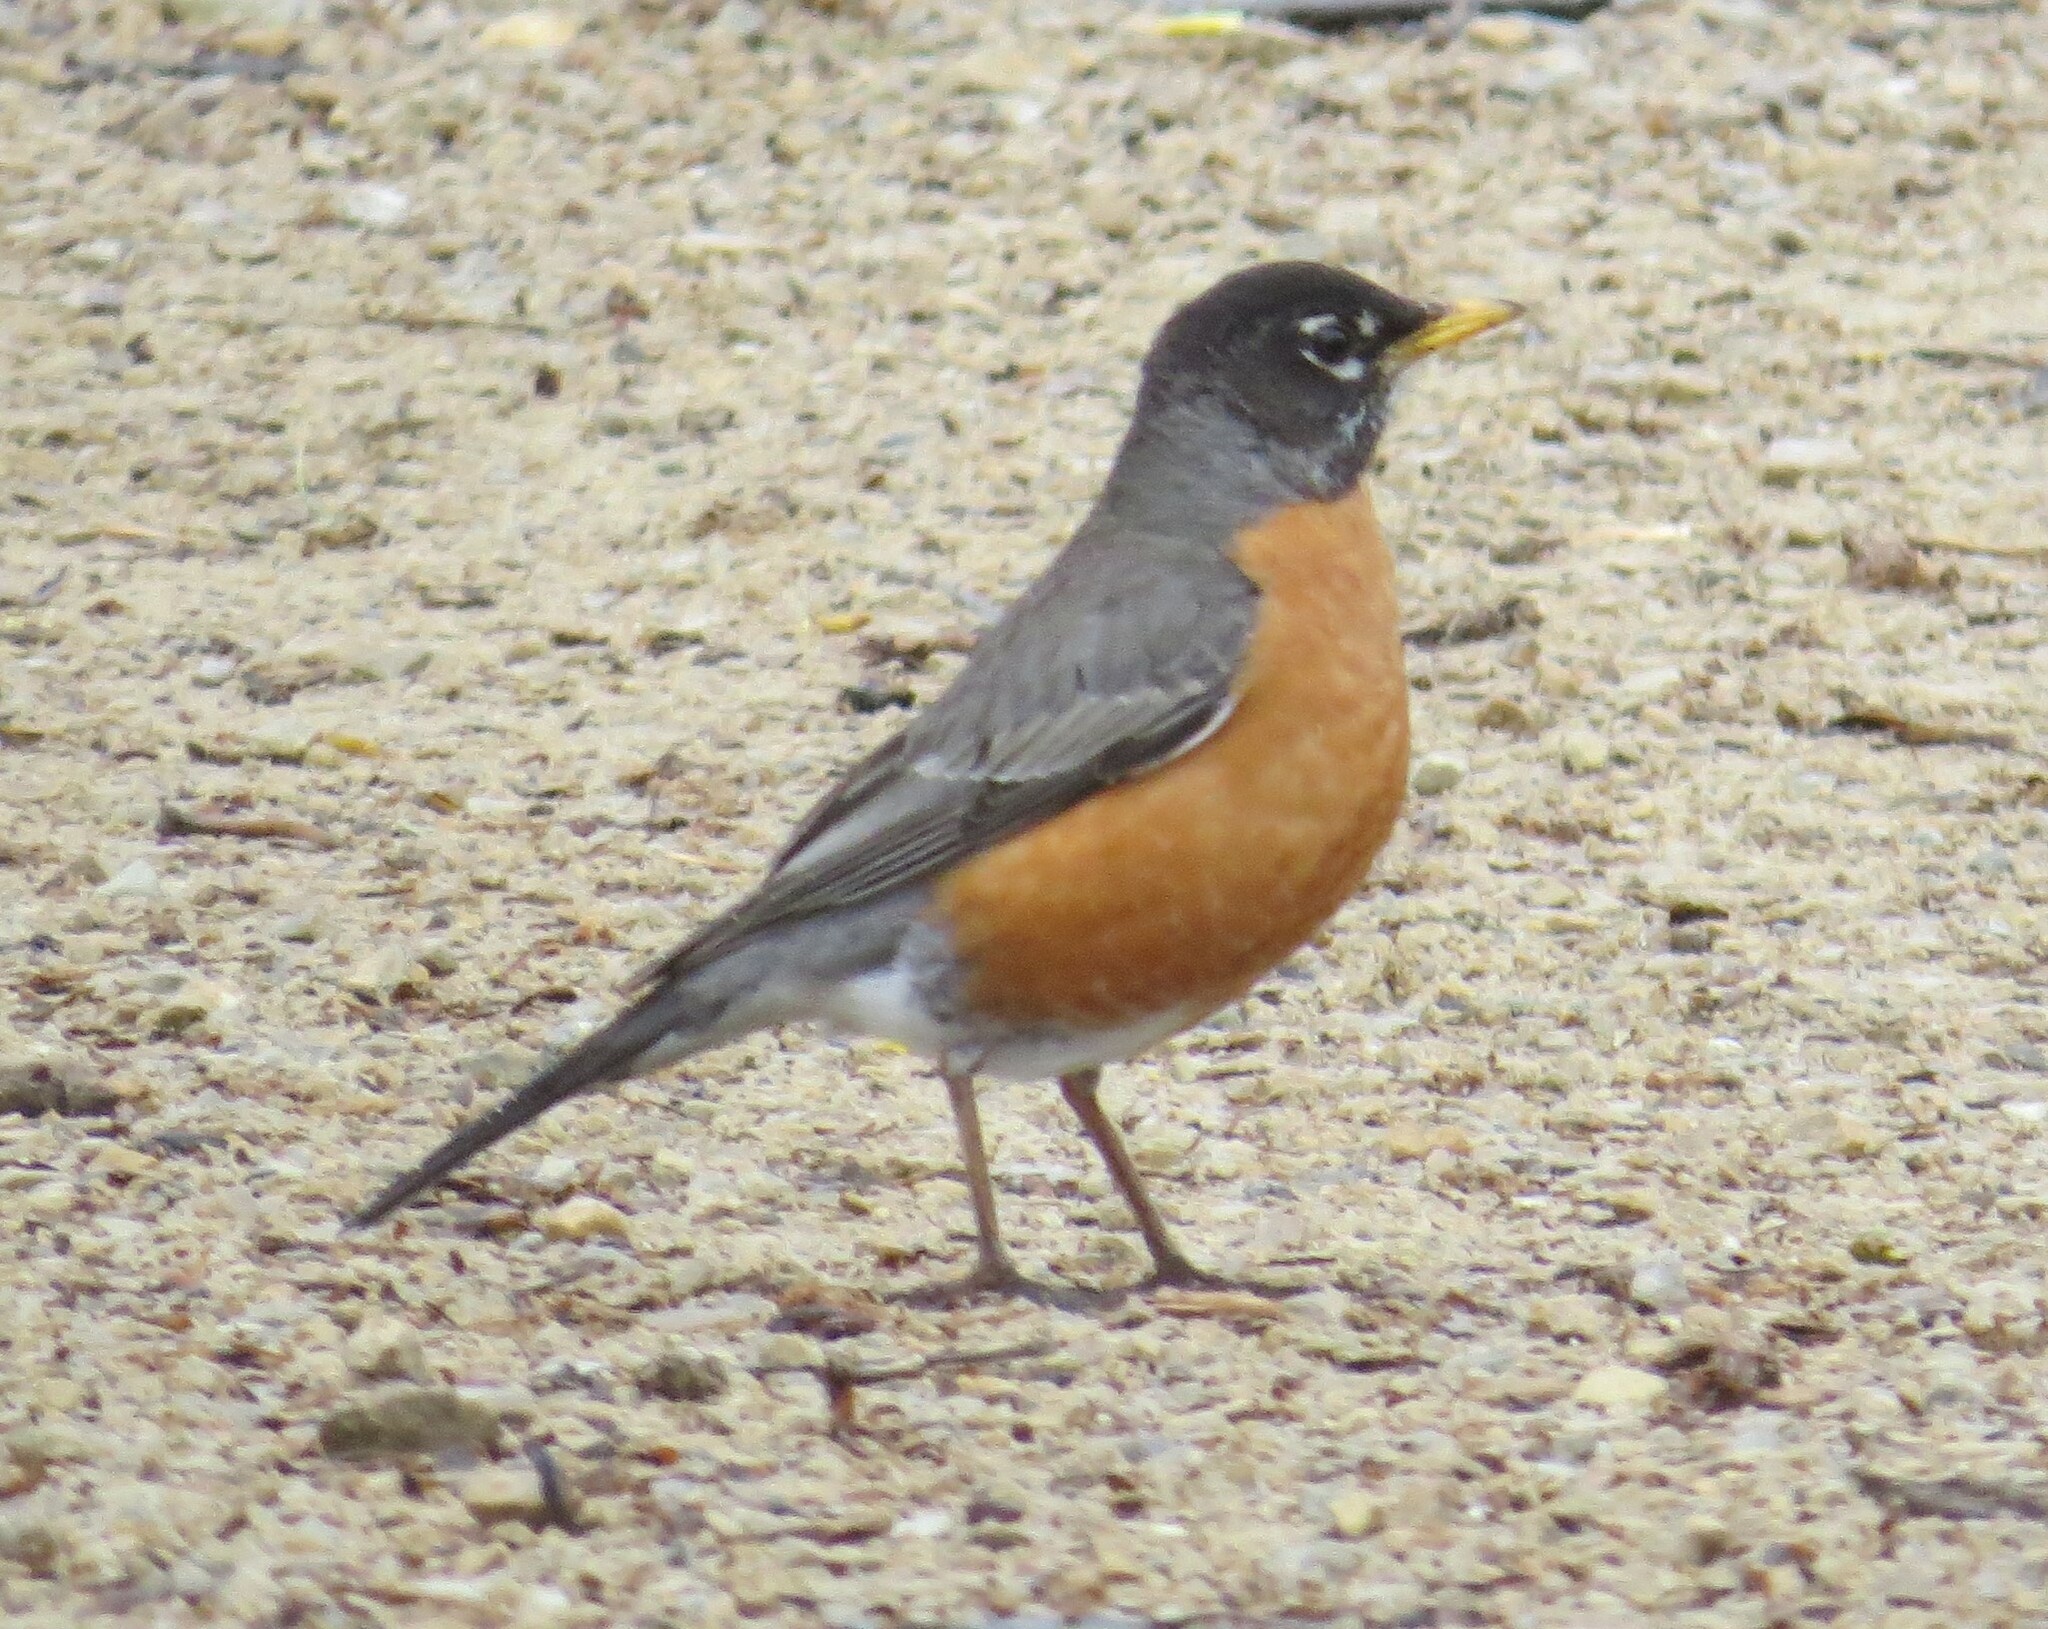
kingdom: Animalia
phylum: Chordata
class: Aves
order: Passeriformes
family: Turdidae
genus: Turdus
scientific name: Turdus migratorius
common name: American robin
